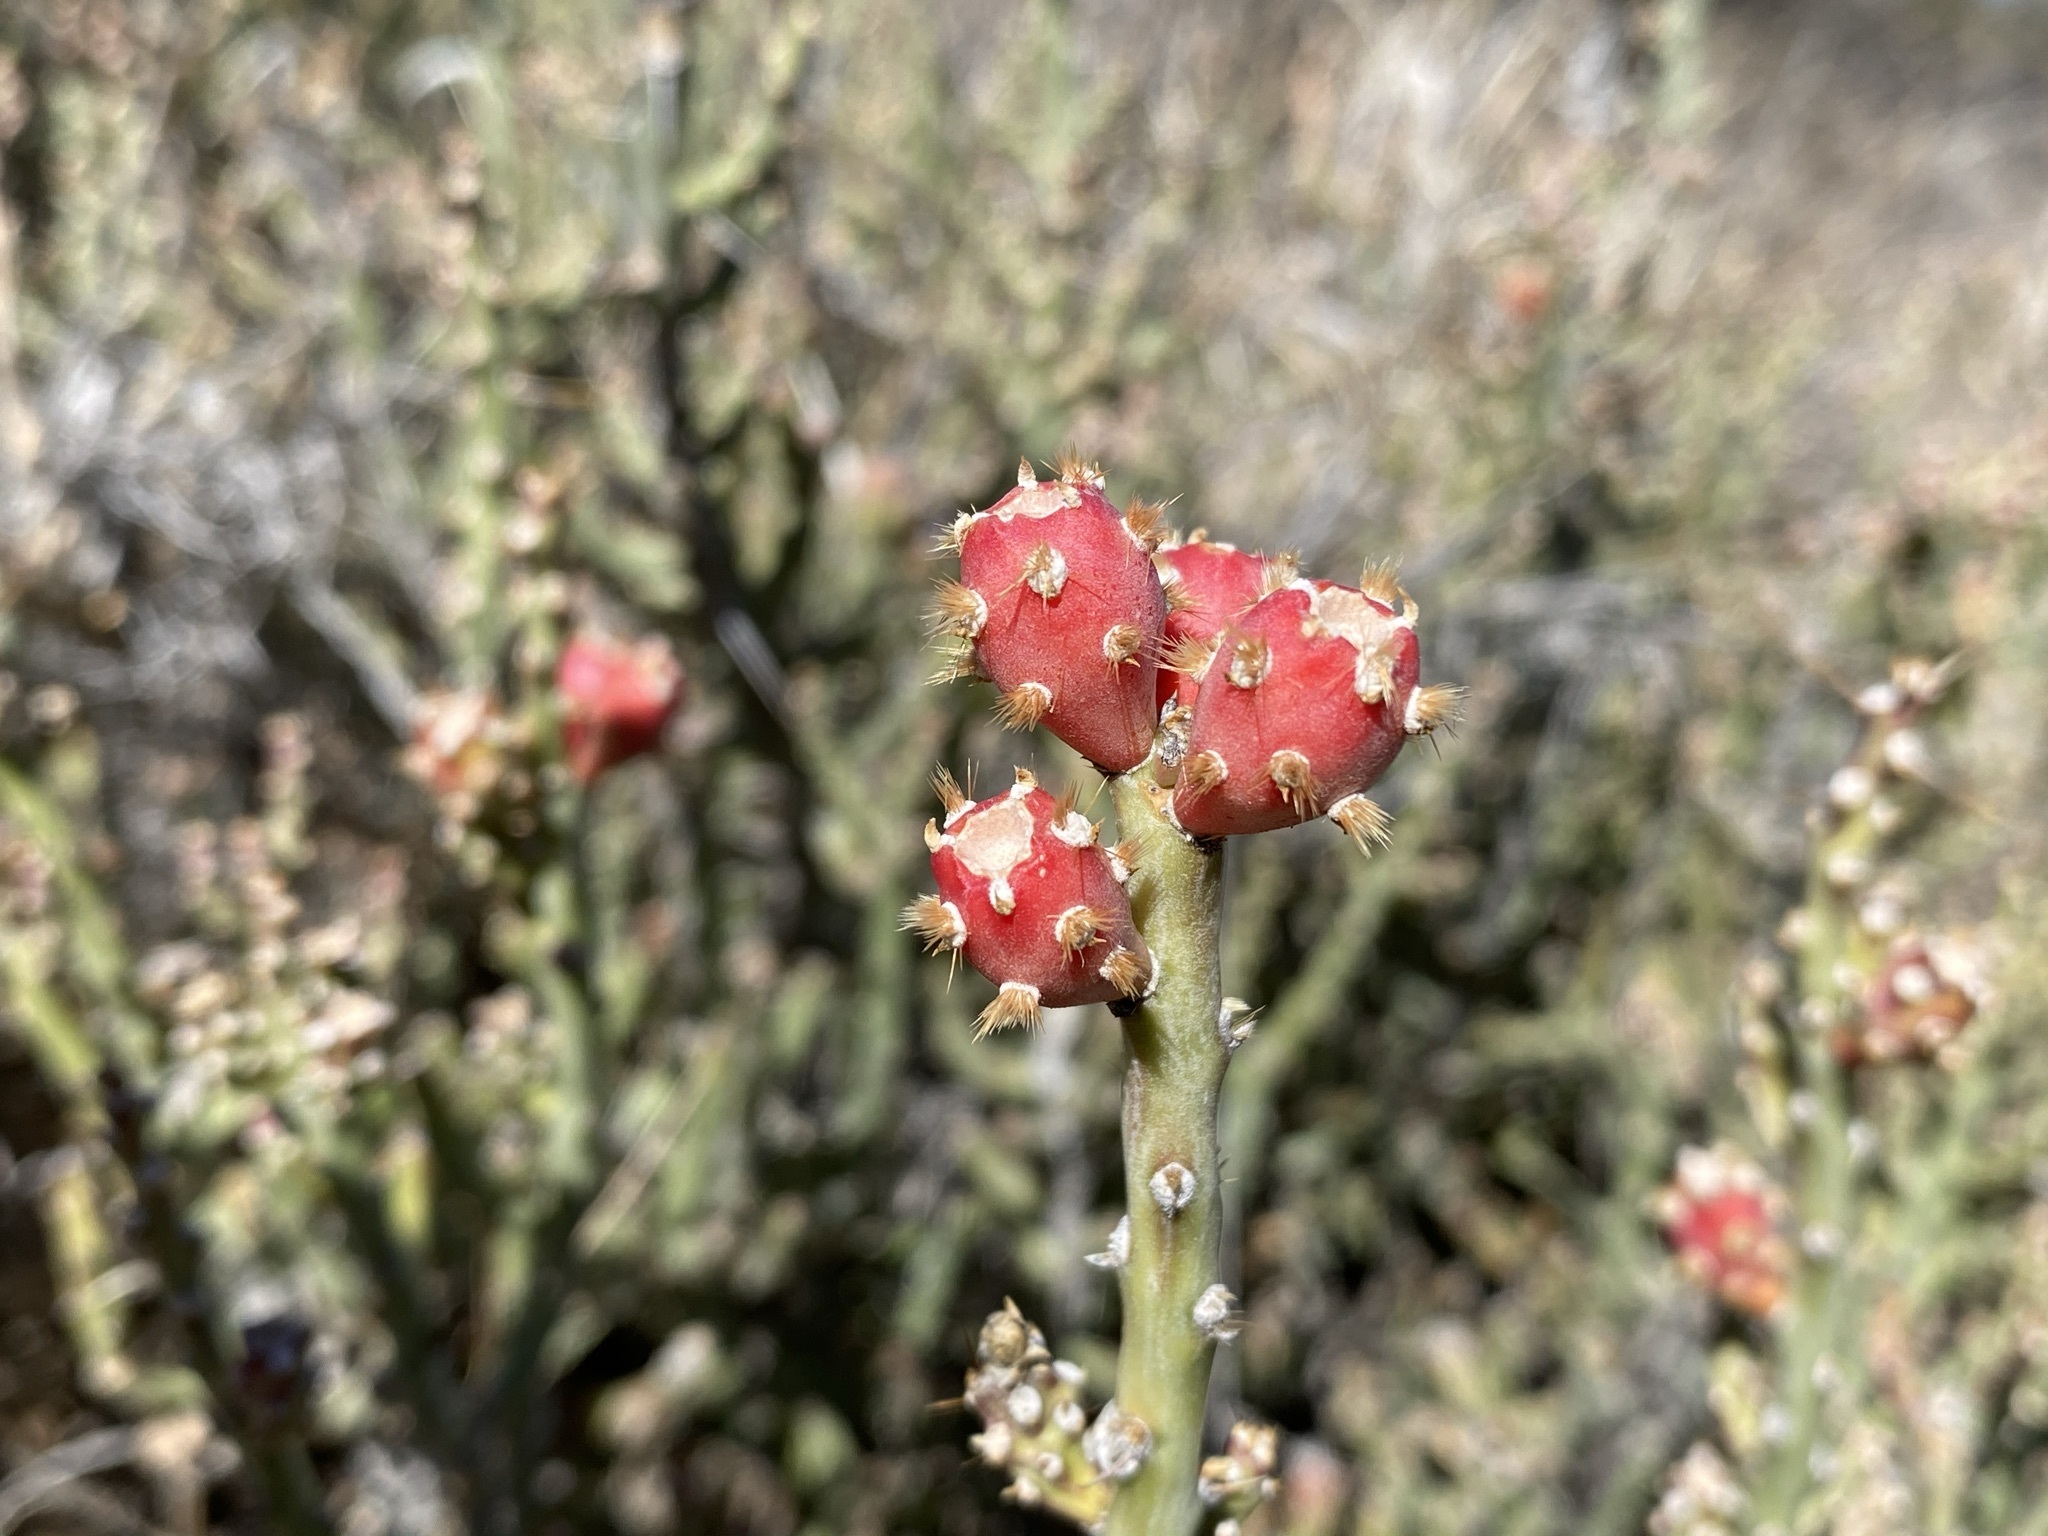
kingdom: Plantae
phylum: Tracheophyta
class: Magnoliopsida
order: Caryophyllales
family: Cactaceae
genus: Cylindropuntia
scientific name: Cylindropuntia leptocaulis
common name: Christmas cactus
